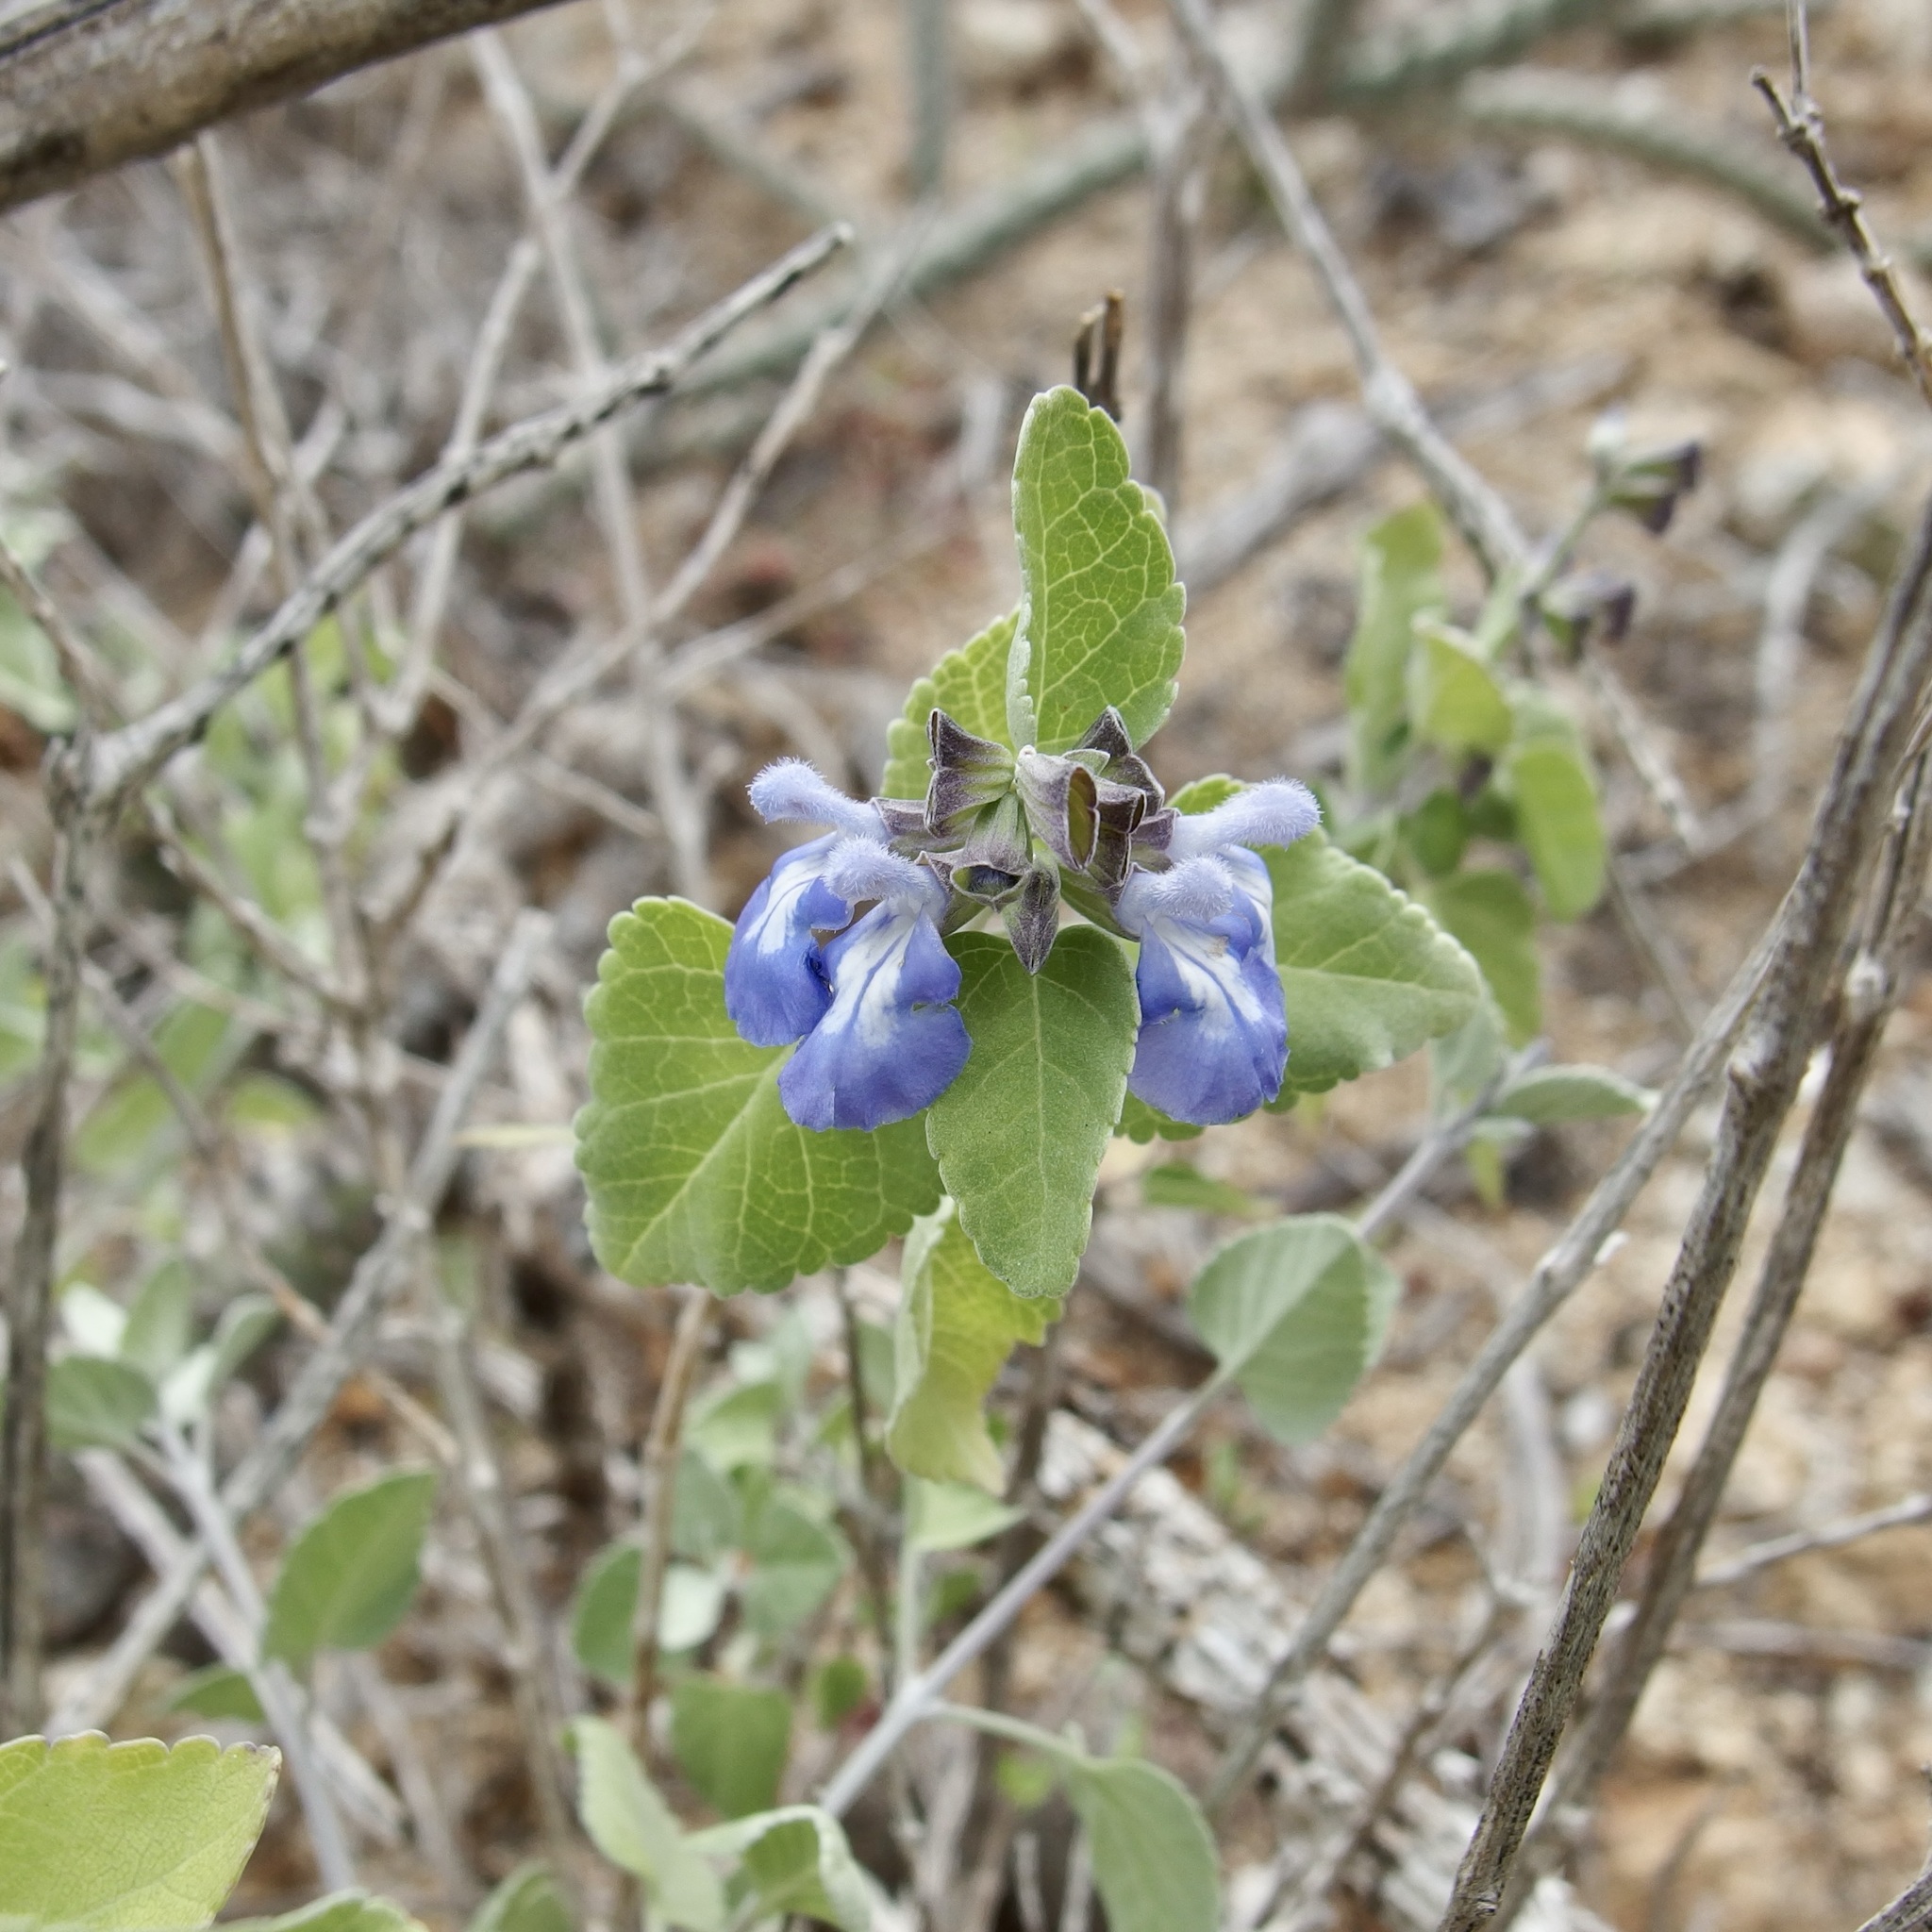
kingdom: Plantae
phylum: Tracheophyta
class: Magnoliopsida
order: Lamiales
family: Lamiaceae
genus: Salvia
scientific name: Salvia similis
